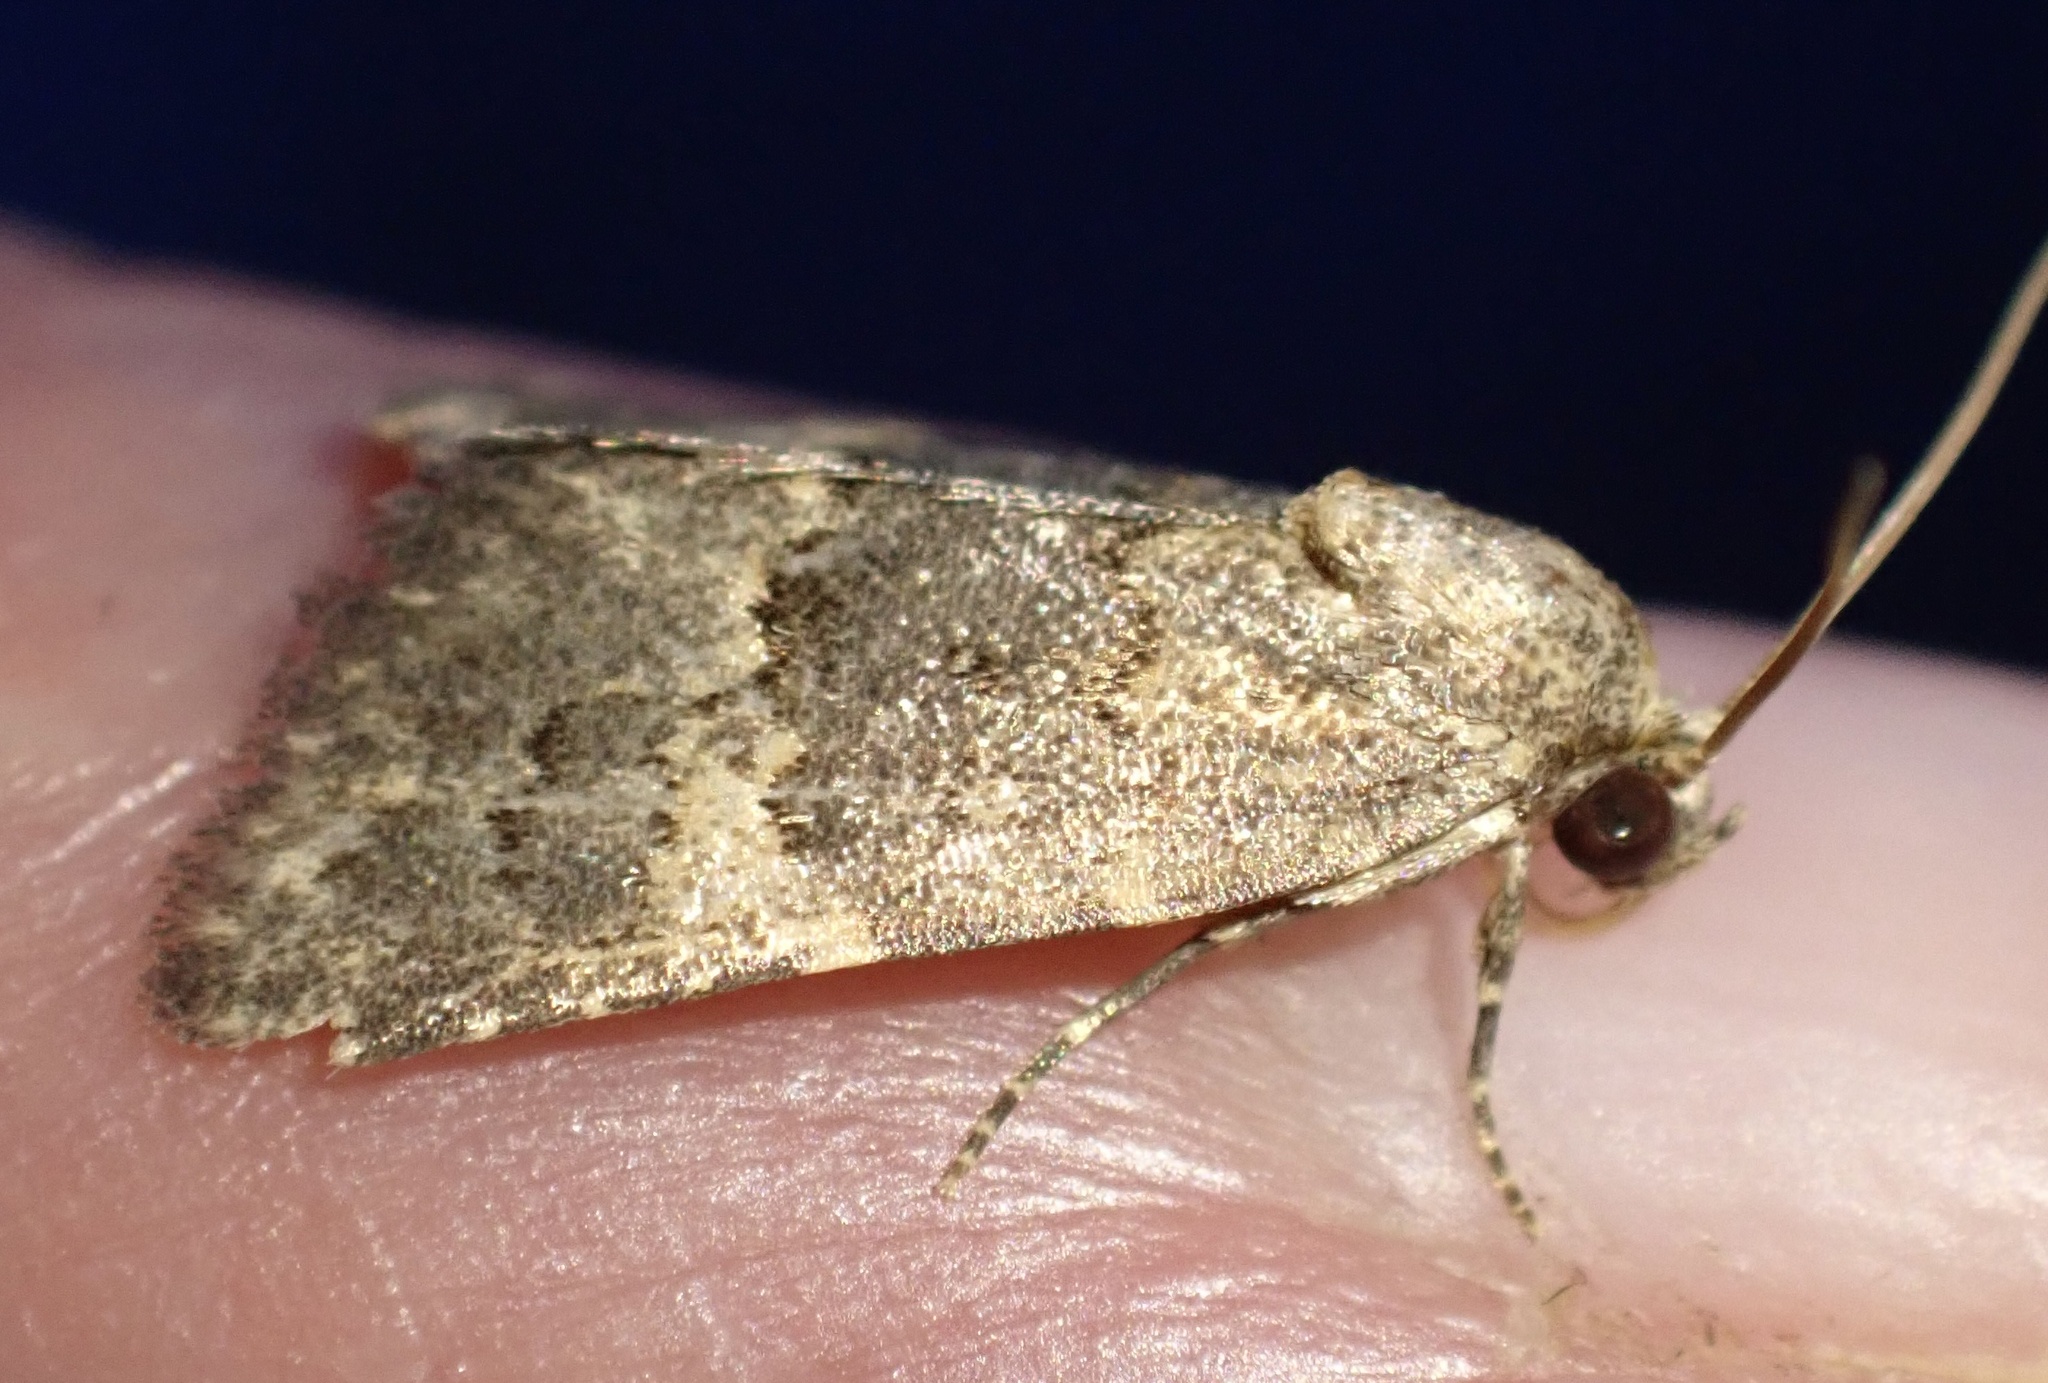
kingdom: Animalia
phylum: Arthropoda
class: Insecta
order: Lepidoptera
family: Noctuidae
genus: Duhemia
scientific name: Duhemia variegata
